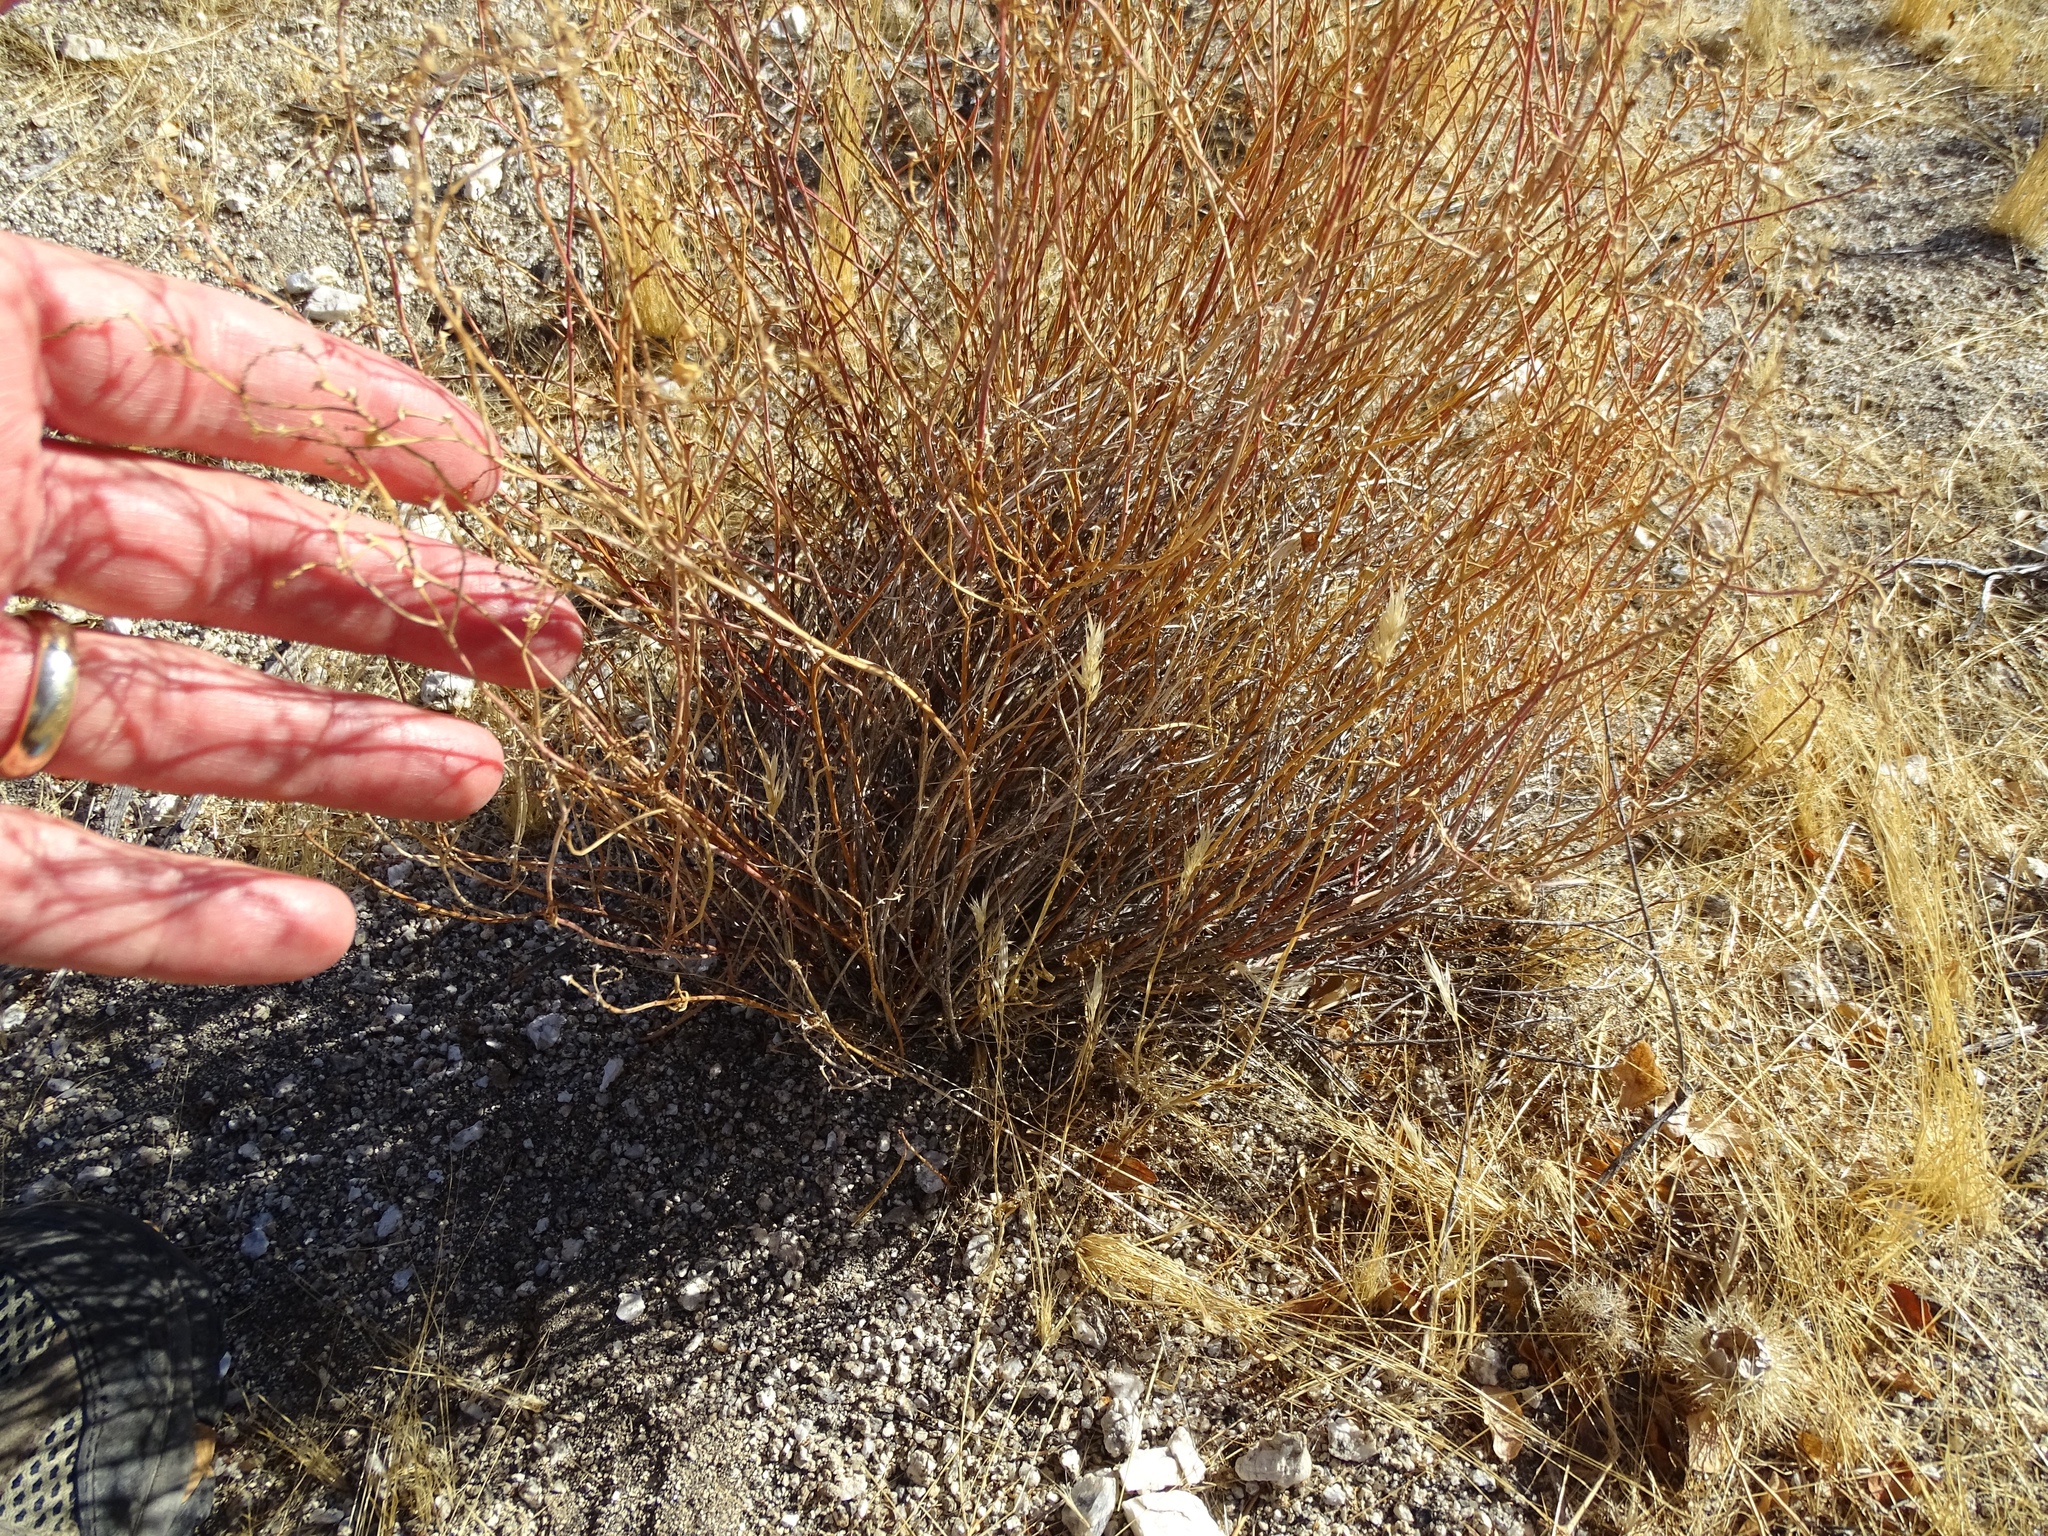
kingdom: Plantae
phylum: Tracheophyta
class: Magnoliopsida
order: Malpighiales
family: Euphorbiaceae
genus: Stillingia
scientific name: Stillingia linearifolia
